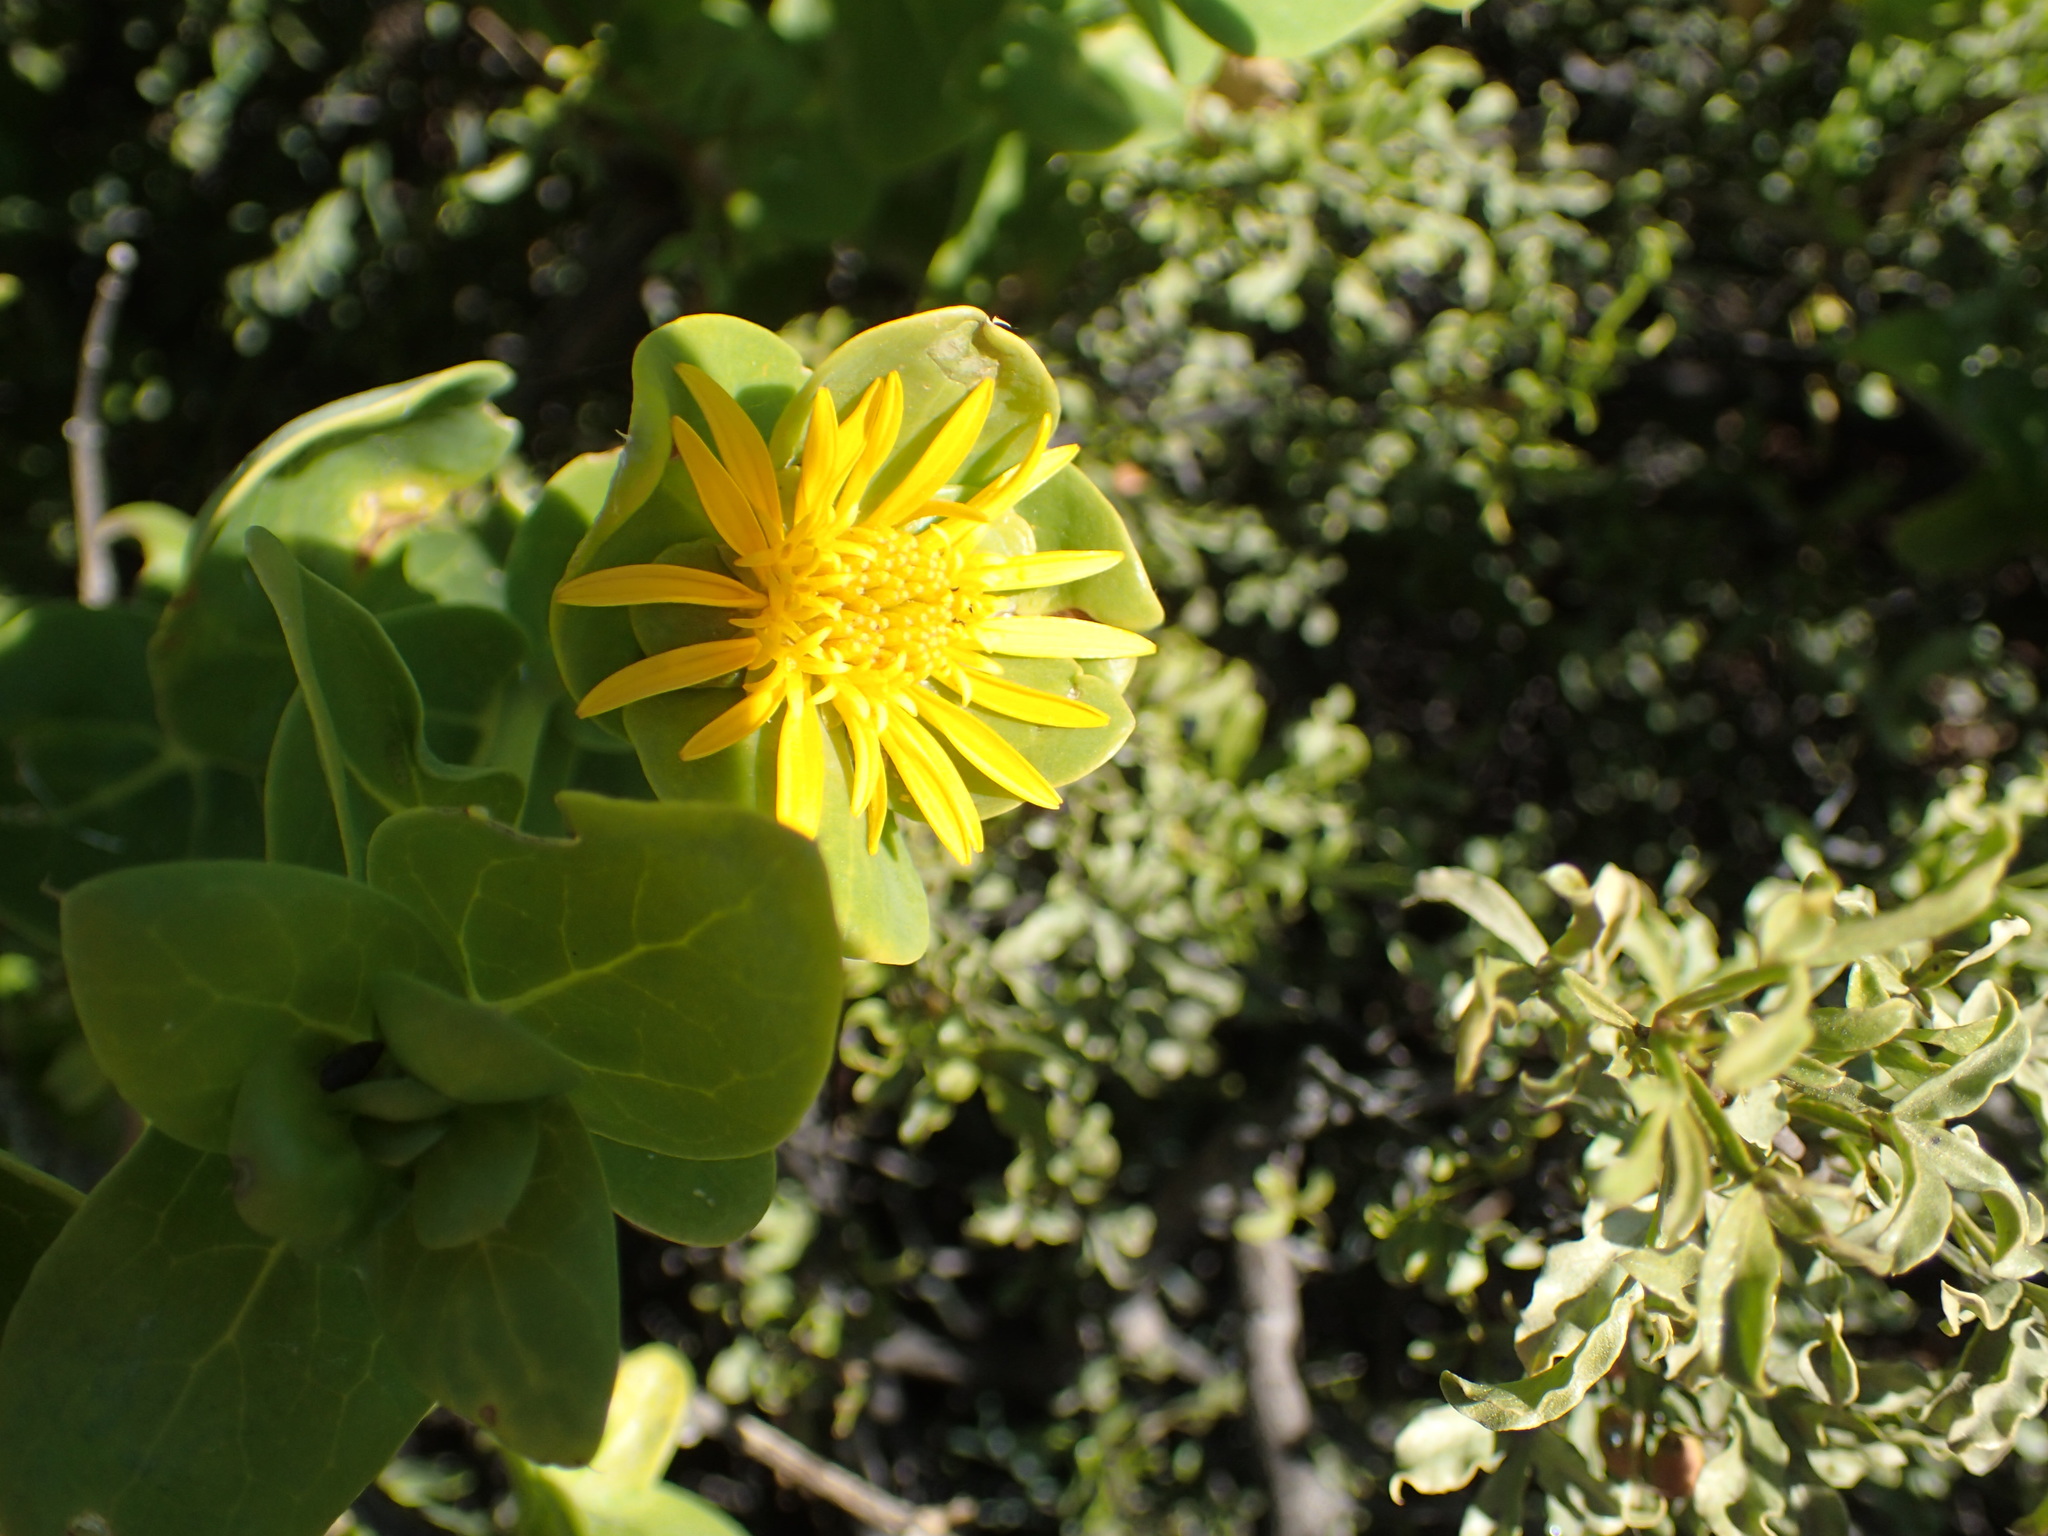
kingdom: Plantae
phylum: Tracheophyta
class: Magnoliopsida
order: Asterales
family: Asteraceae
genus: Didelta
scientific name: Didelta spinosa
